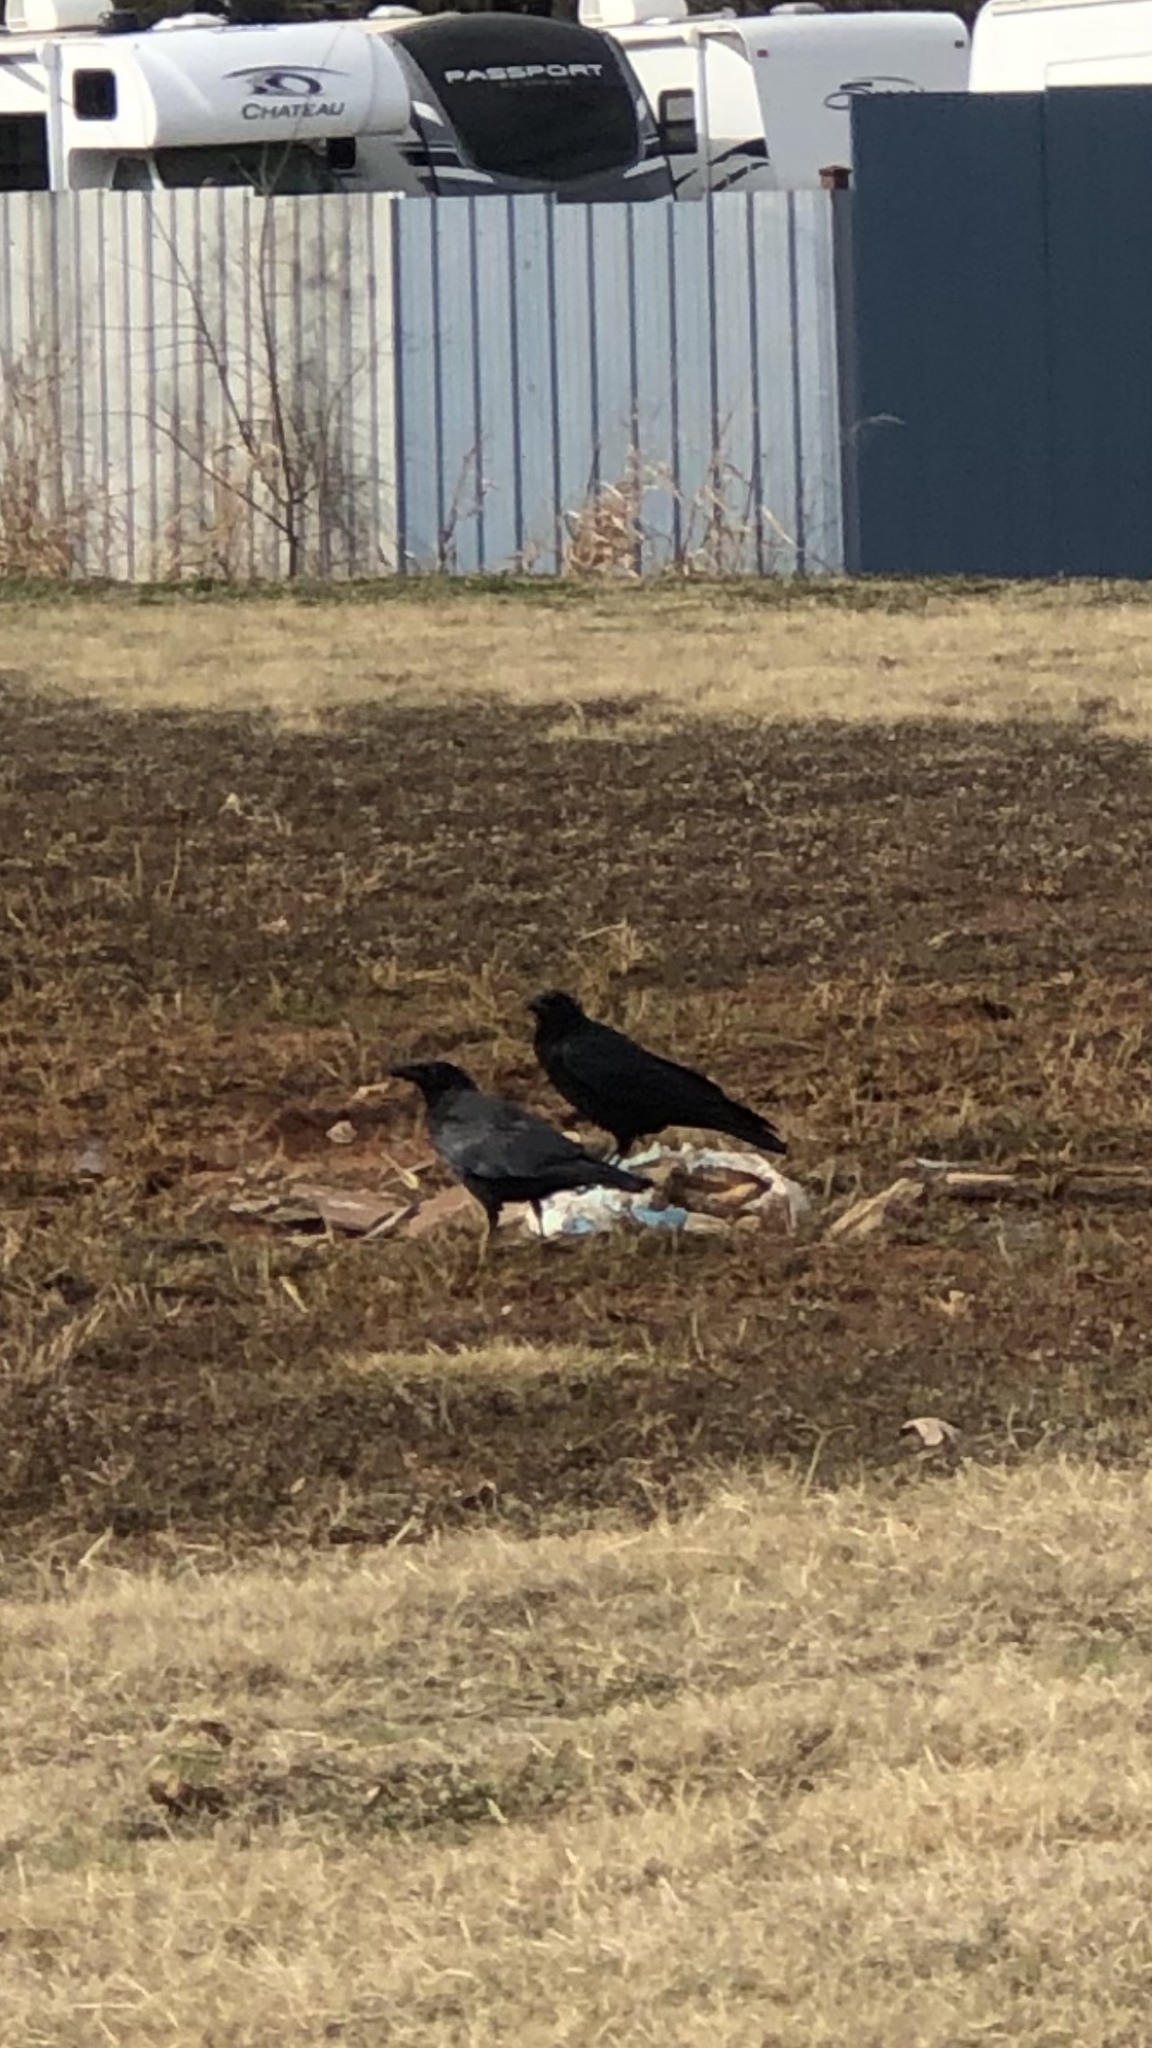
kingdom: Animalia
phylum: Chordata
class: Aves
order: Passeriformes
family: Corvidae
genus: Corvus
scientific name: Corvus brachyrhynchos
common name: American crow
